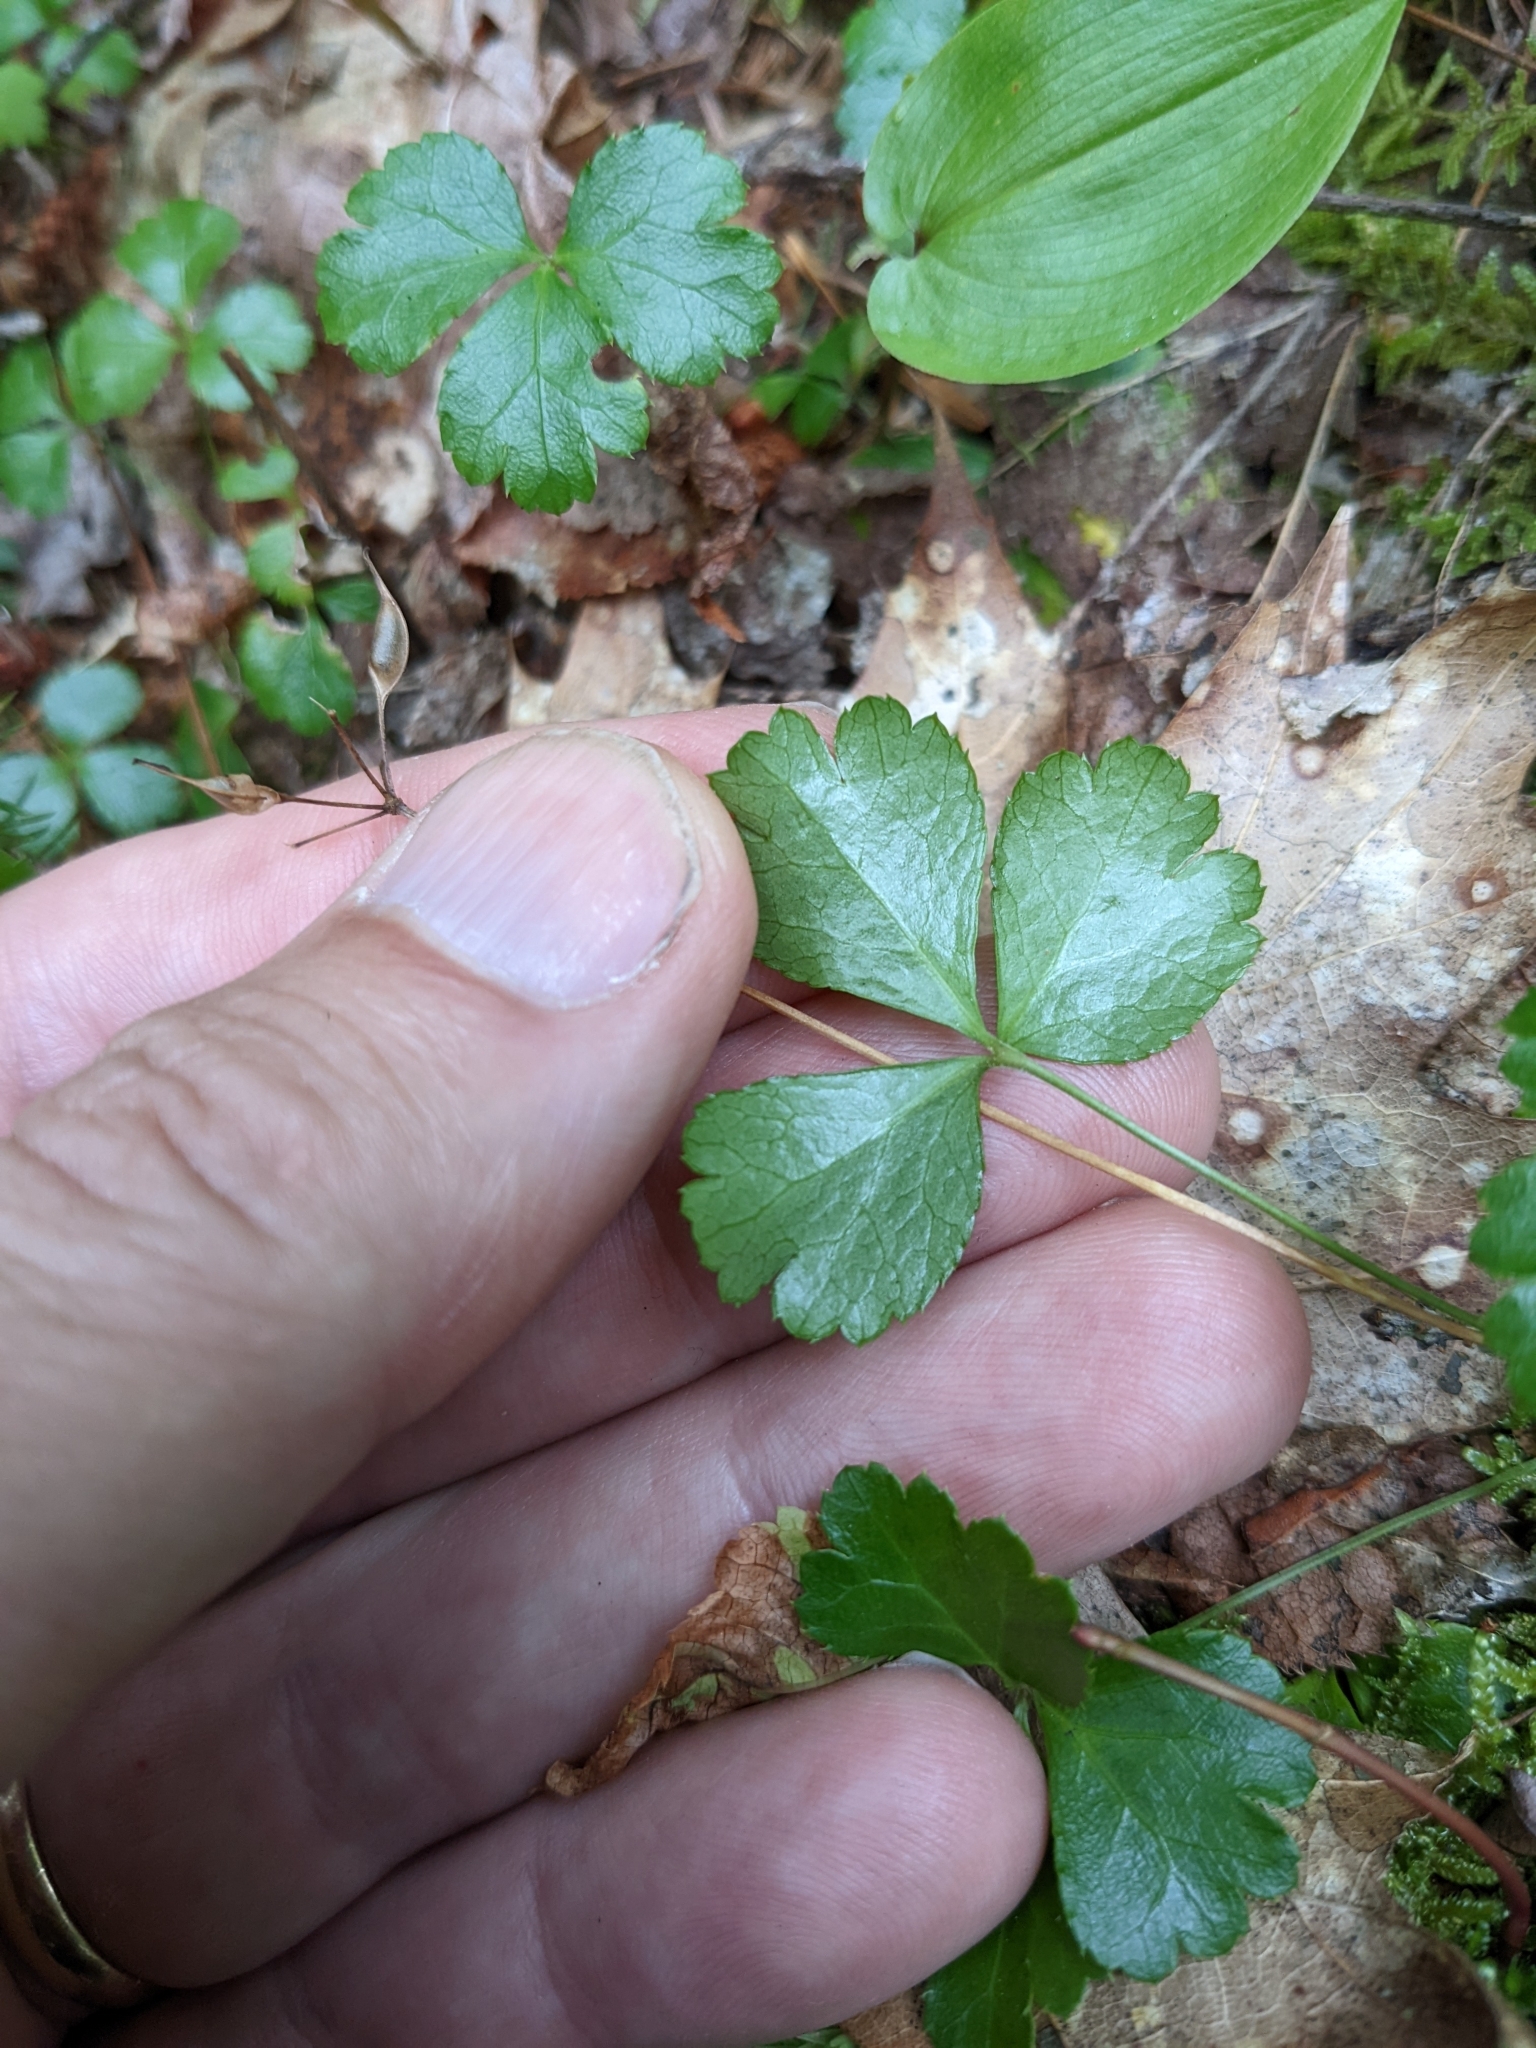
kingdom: Plantae
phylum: Tracheophyta
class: Magnoliopsida
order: Ranunculales
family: Ranunculaceae
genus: Coptis
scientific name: Coptis trifolia
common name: Canker-root
